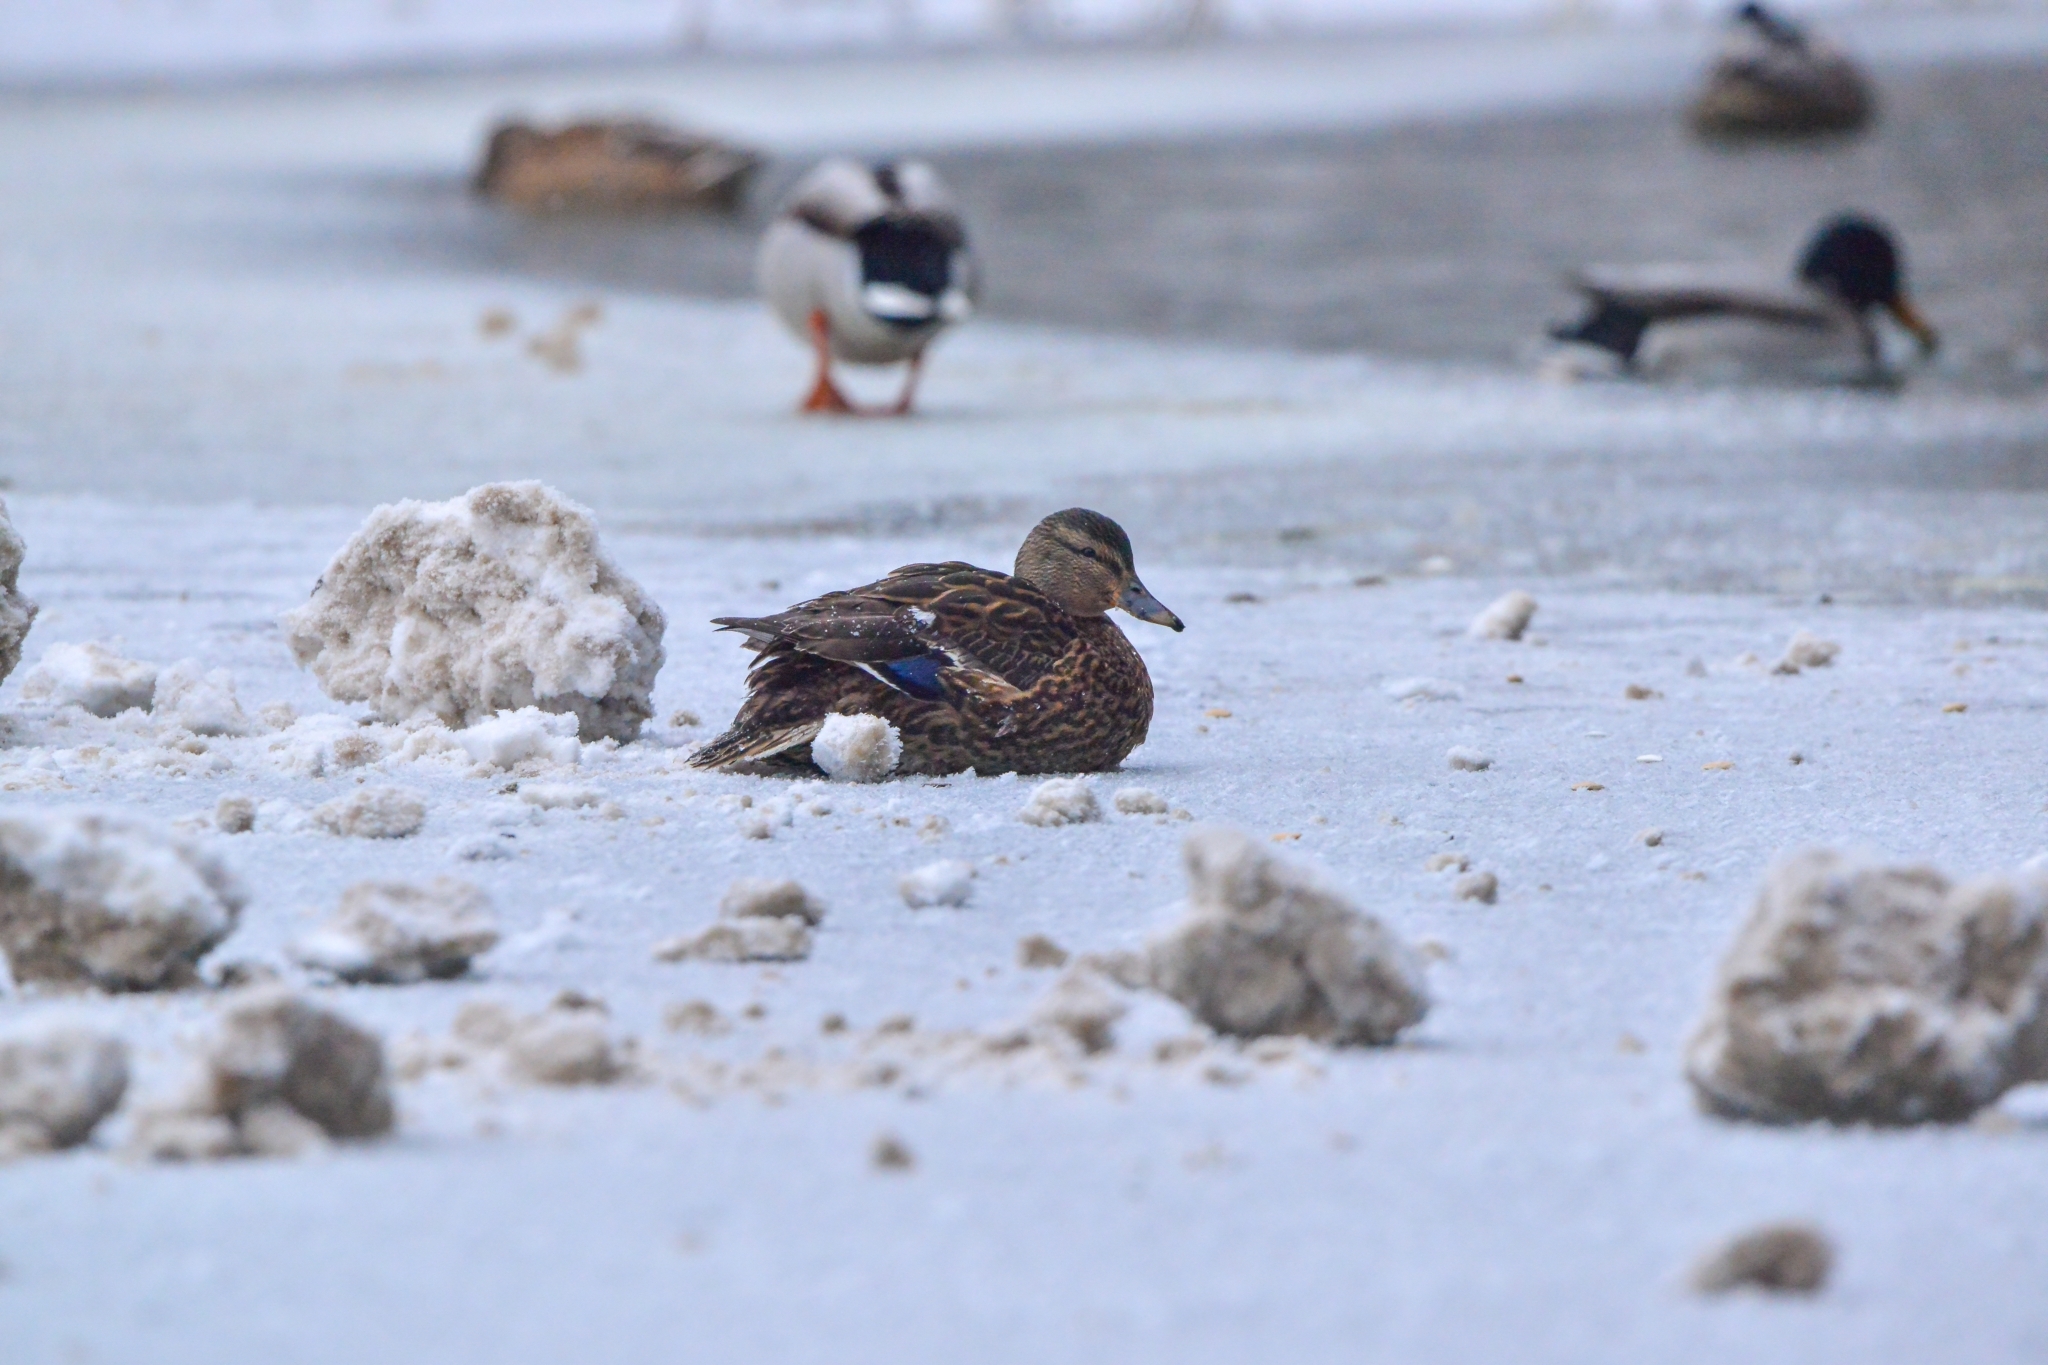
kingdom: Animalia
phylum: Chordata
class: Aves
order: Anseriformes
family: Anatidae
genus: Anas
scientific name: Anas platyrhynchos
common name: Mallard
